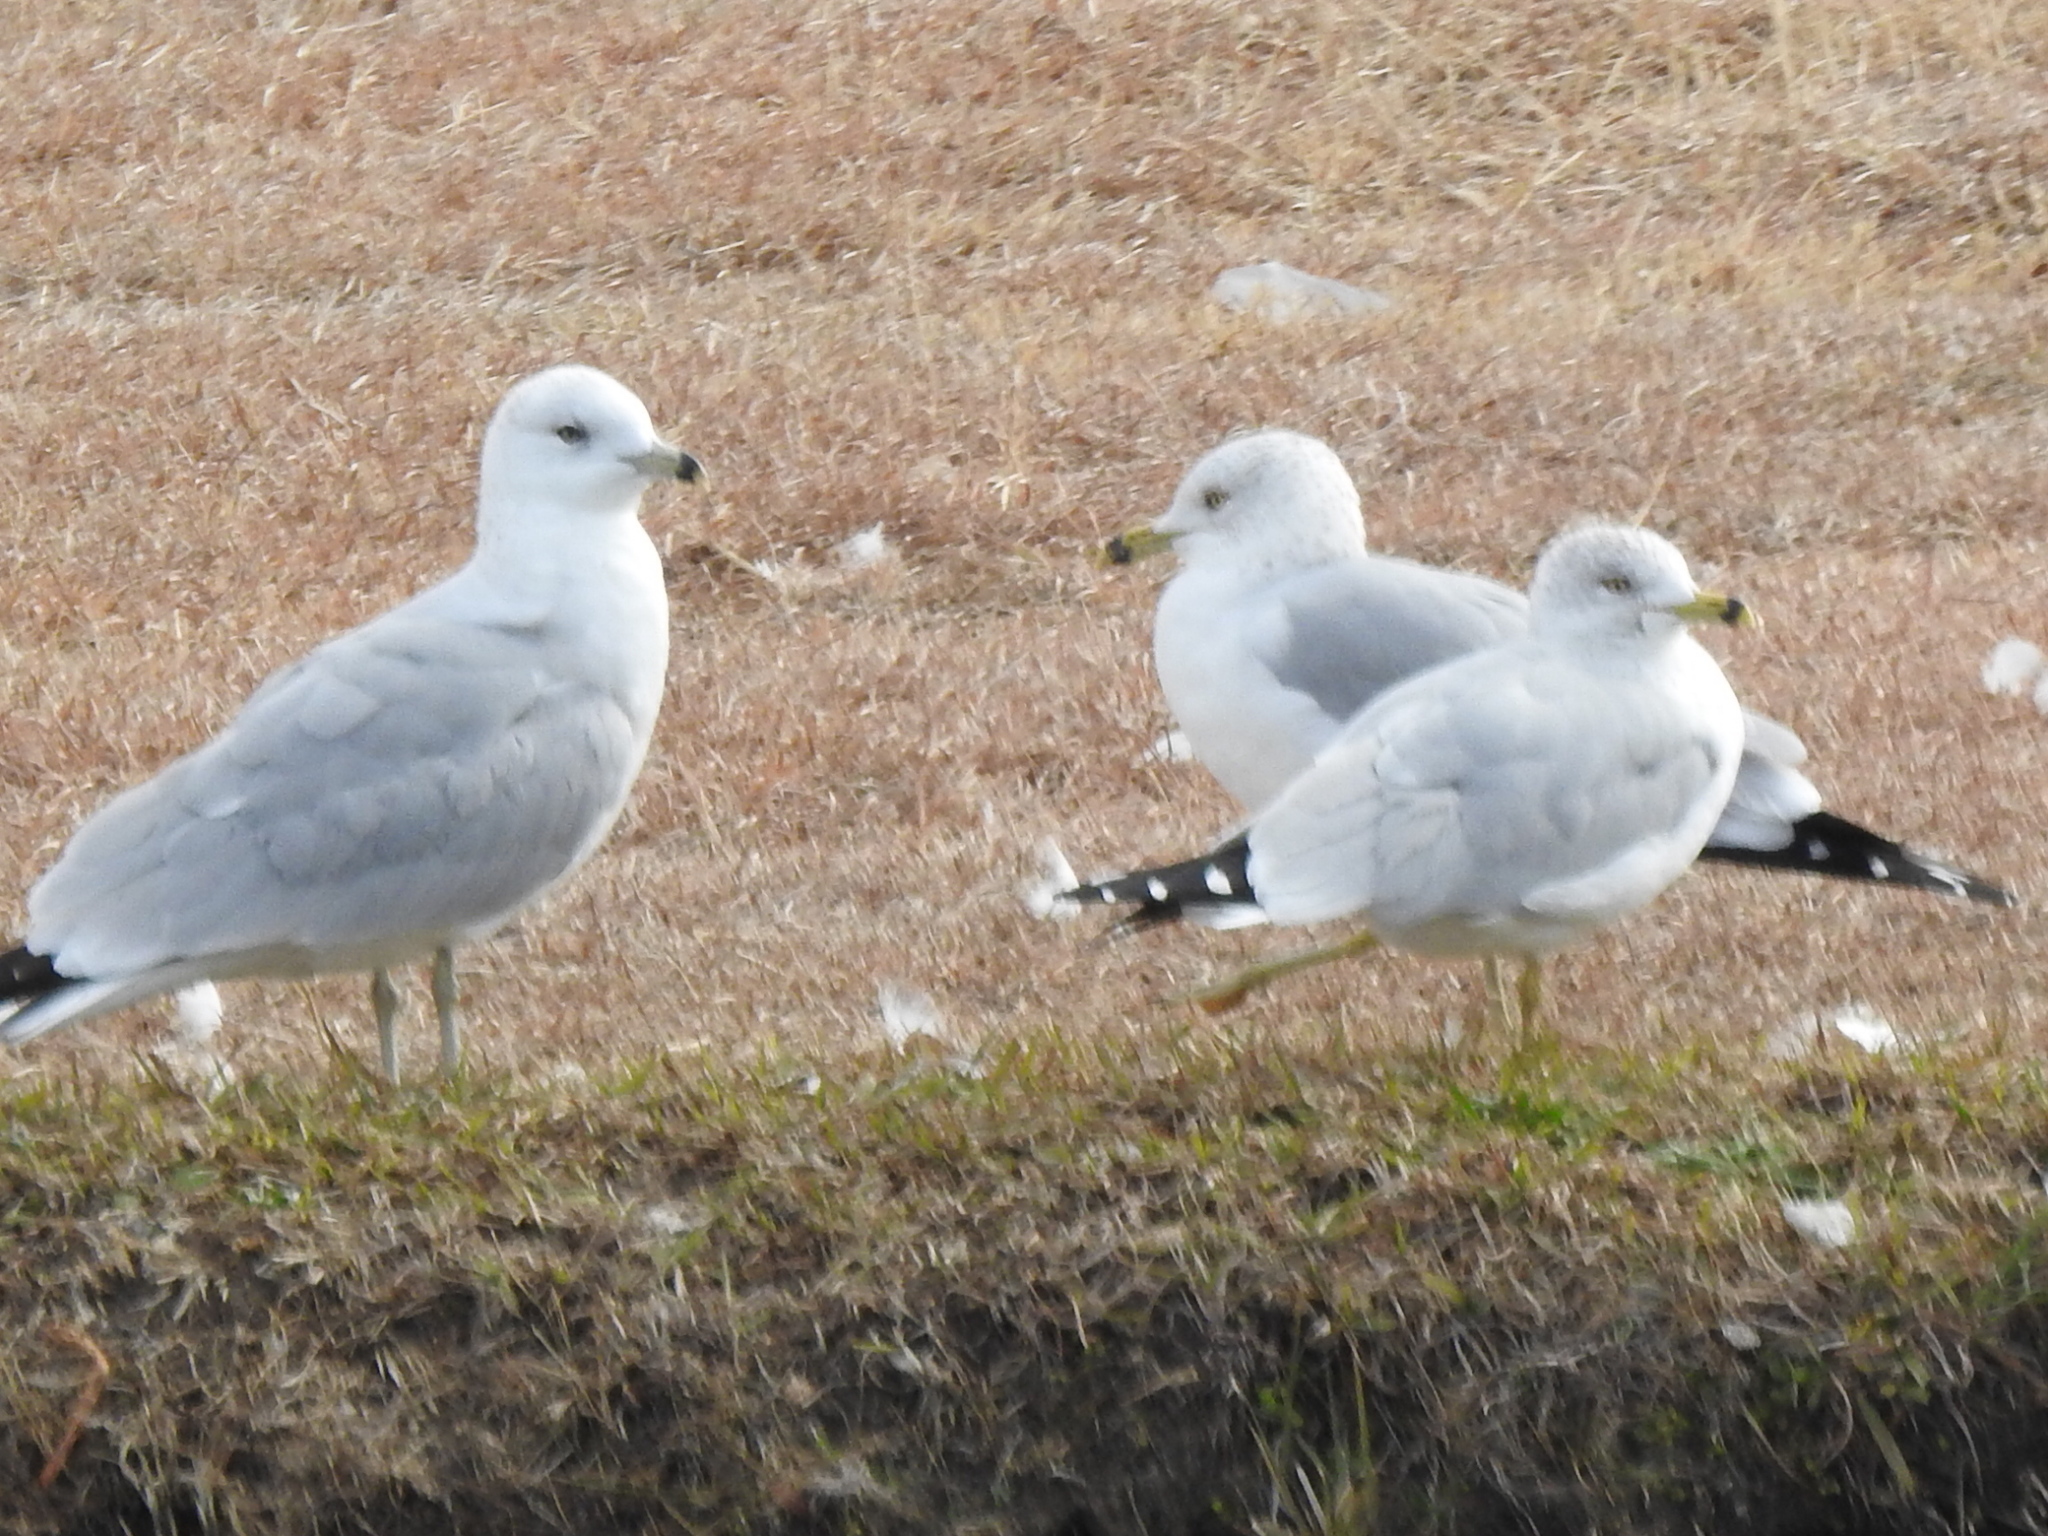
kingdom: Animalia
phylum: Chordata
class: Aves
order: Charadriiformes
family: Laridae
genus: Larus
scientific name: Larus delawarensis
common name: Ring-billed gull
